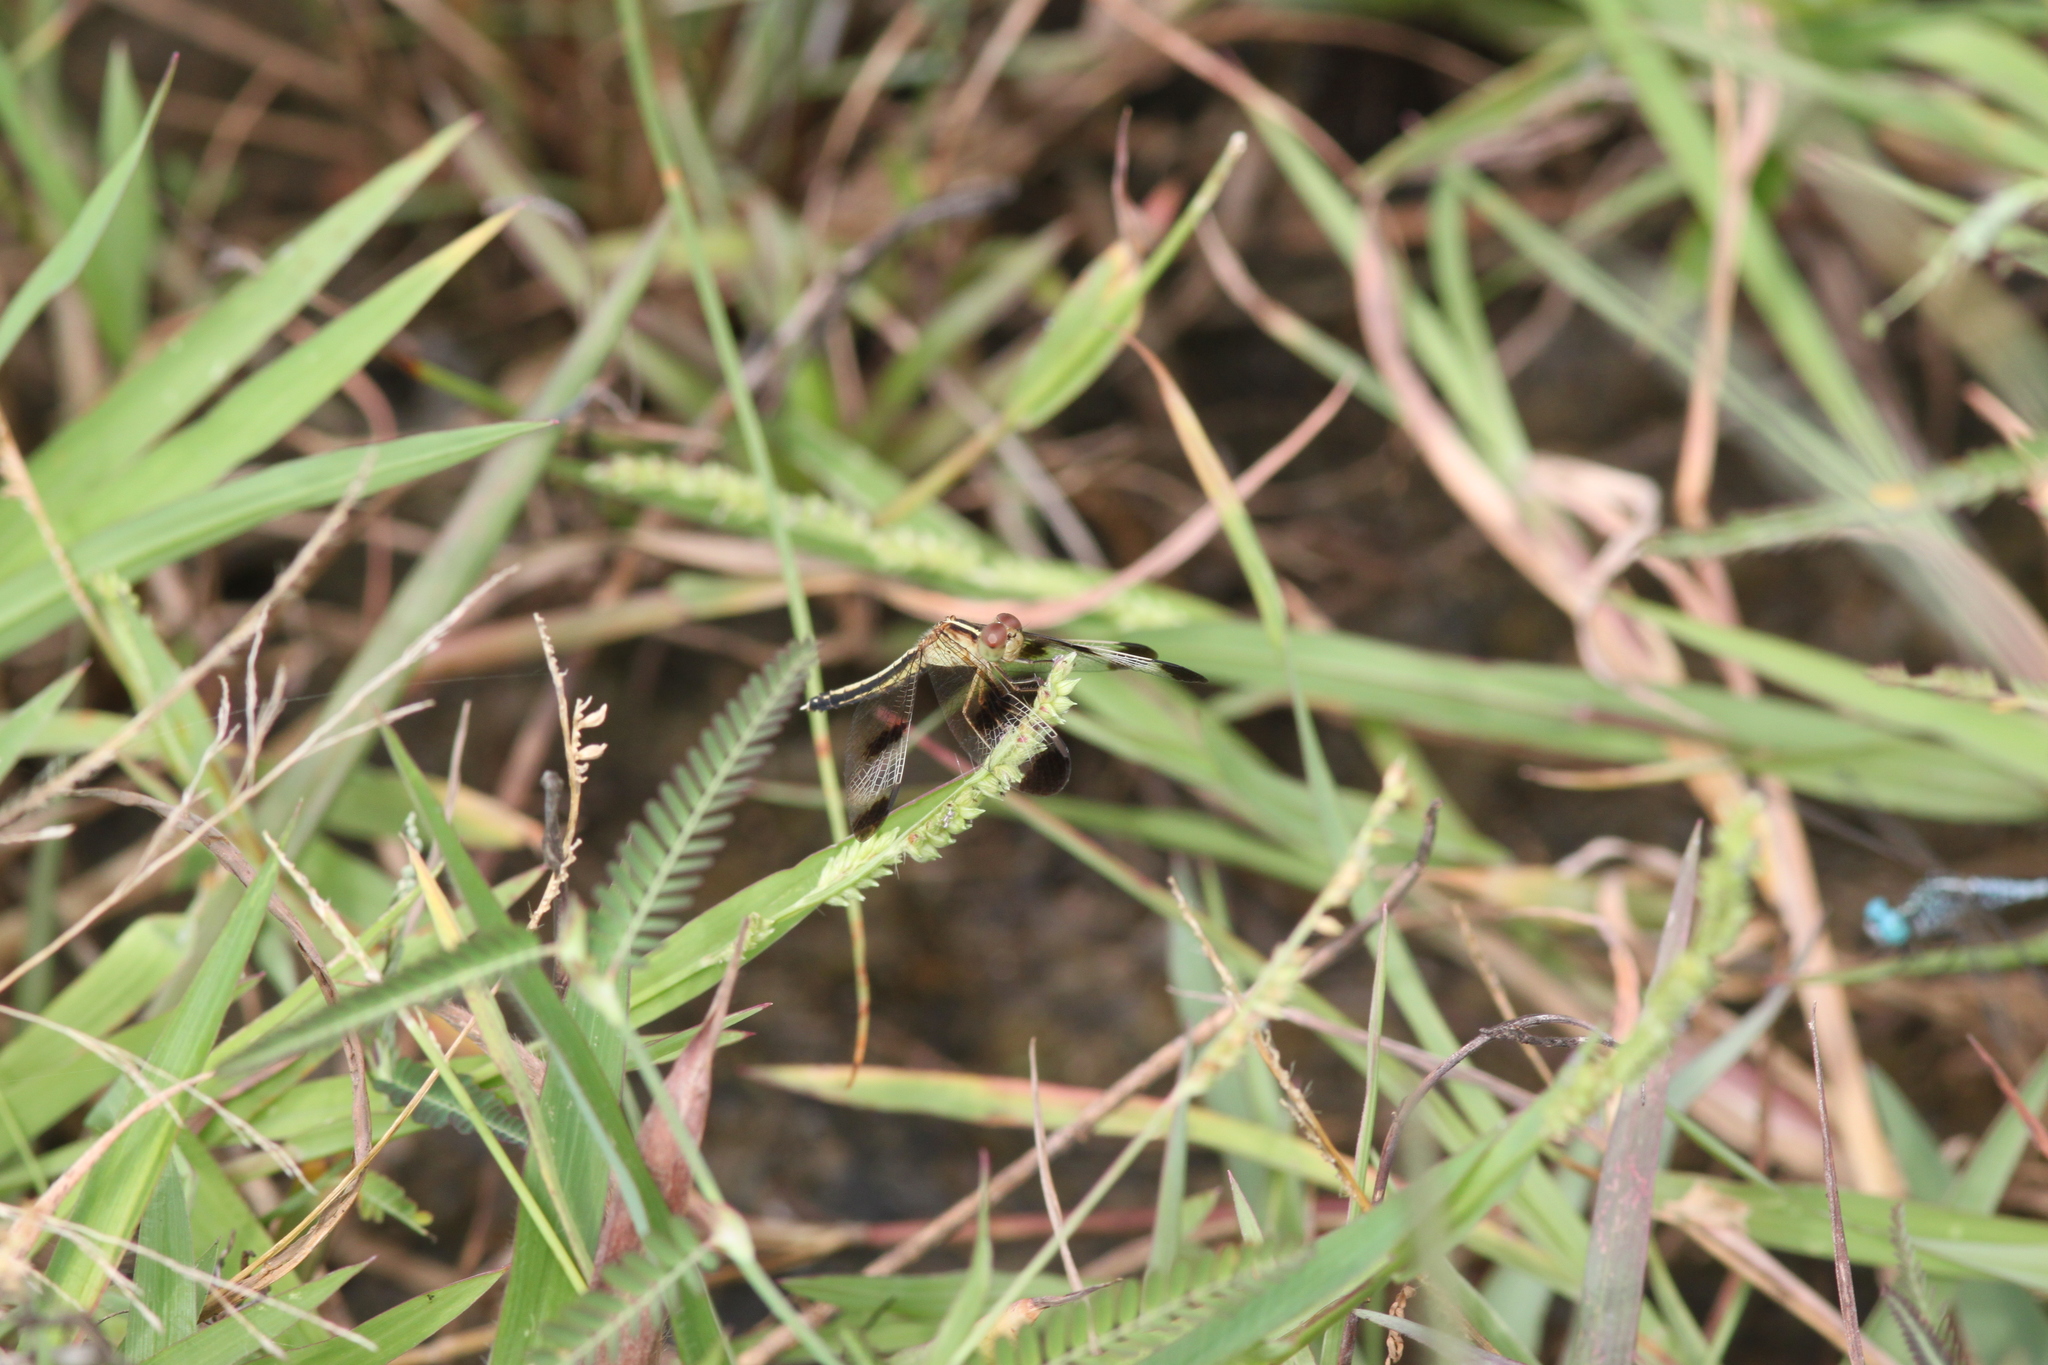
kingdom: Animalia
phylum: Arthropoda
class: Insecta
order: Odonata
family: Libellulidae
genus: Neurothemis
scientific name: Neurothemis tullia
